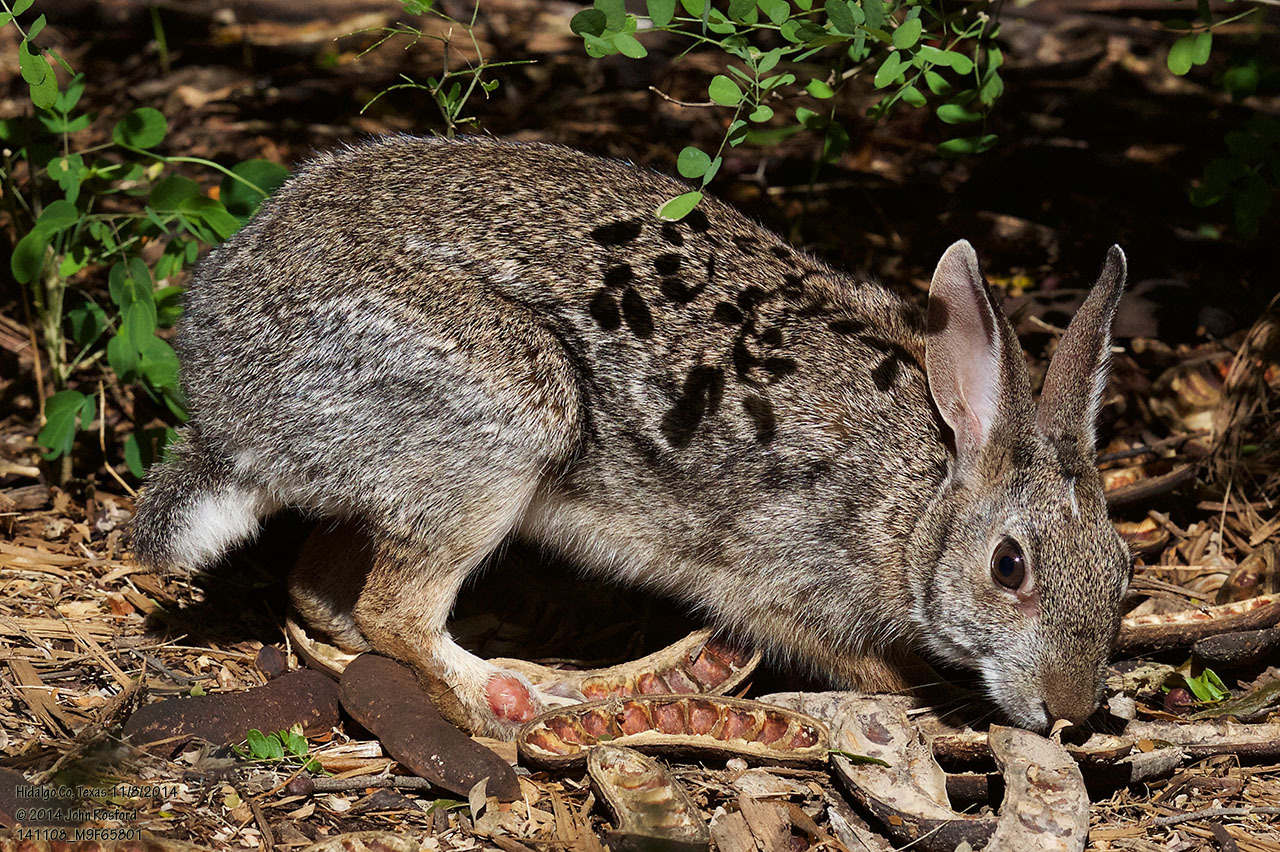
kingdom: Animalia
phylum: Chordata
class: Mammalia
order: Lagomorpha
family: Leporidae
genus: Sylvilagus
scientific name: Sylvilagus floridanus
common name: Eastern cottontail
